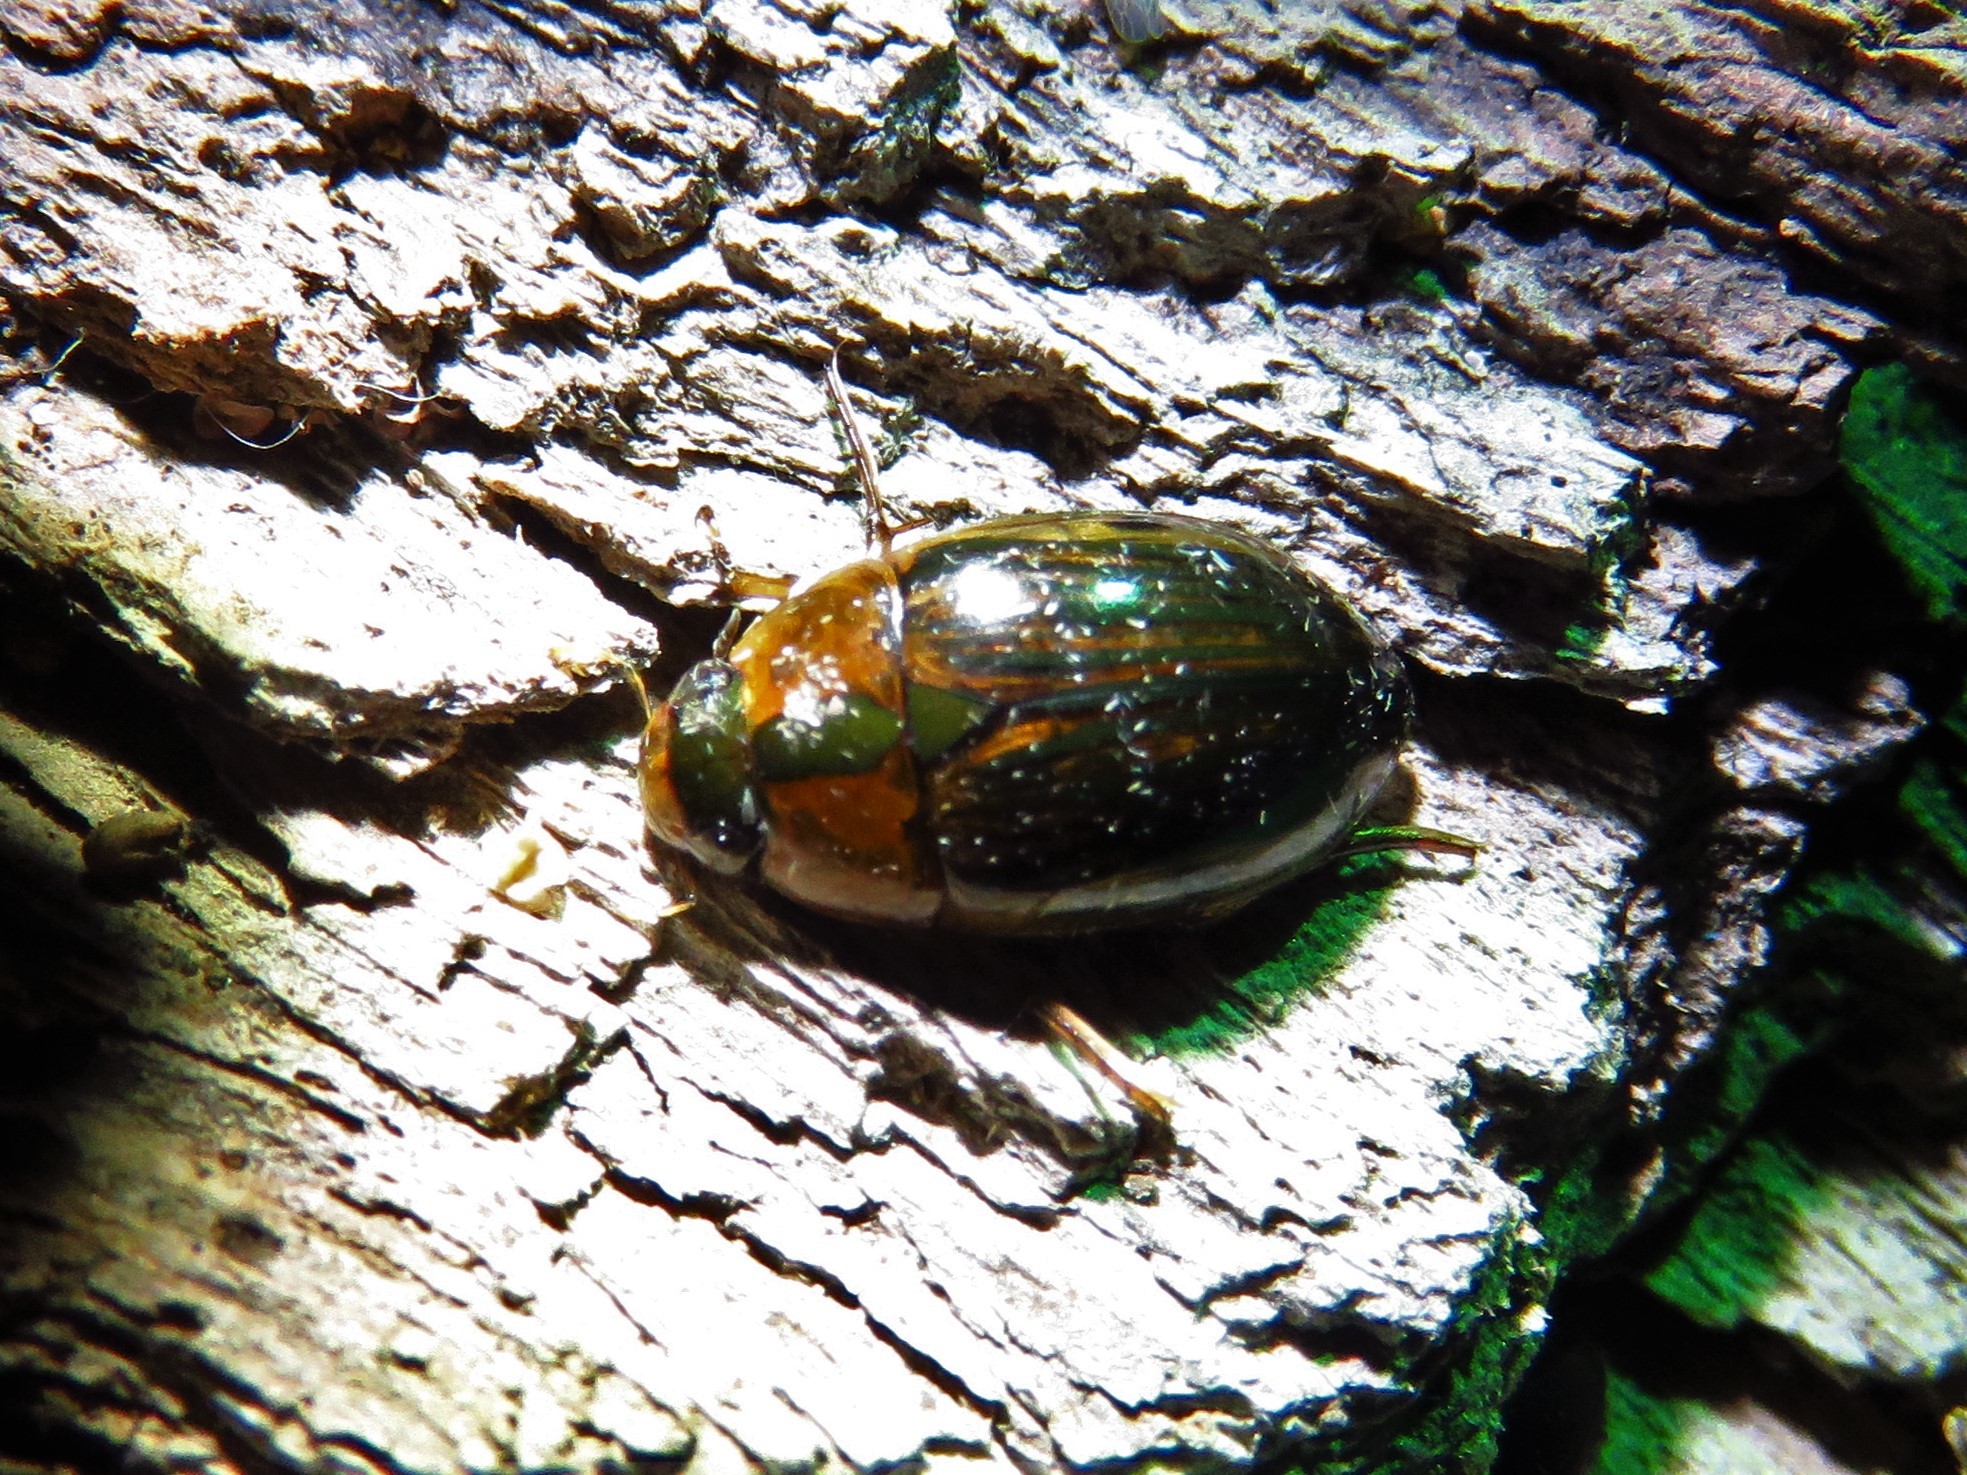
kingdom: Animalia
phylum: Arthropoda
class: Insecta
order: Coleoptera
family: Hydrophilidae
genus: Tropisternus
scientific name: Tropisternus collaris
